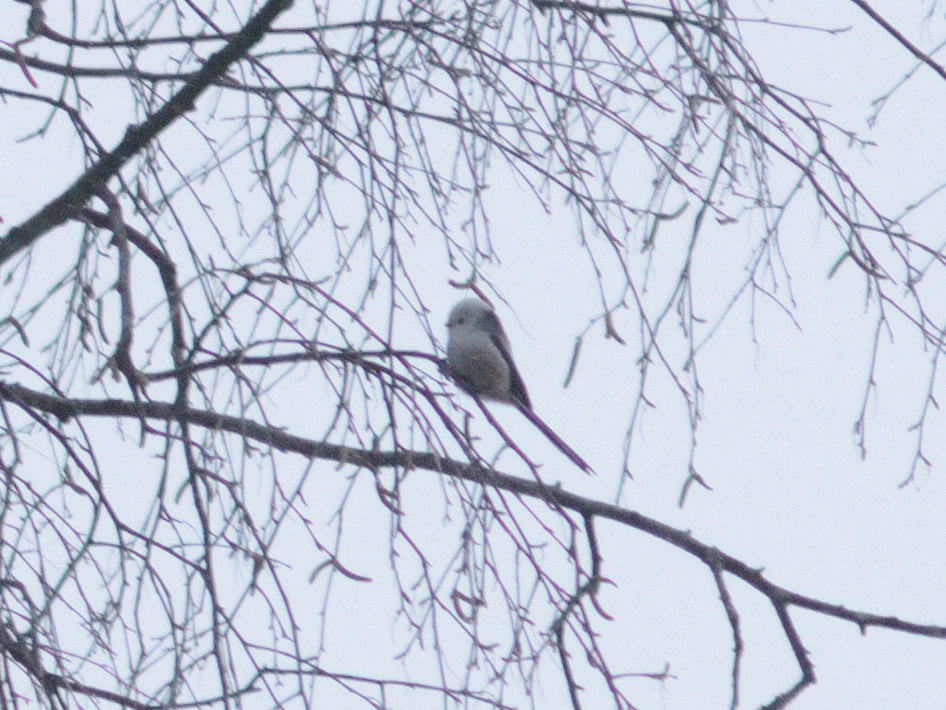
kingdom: Animalia
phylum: Chordata
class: Aves
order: Passeriformes
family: Aegithalidae
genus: Aegithalos
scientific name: Aegithalos caudatus
